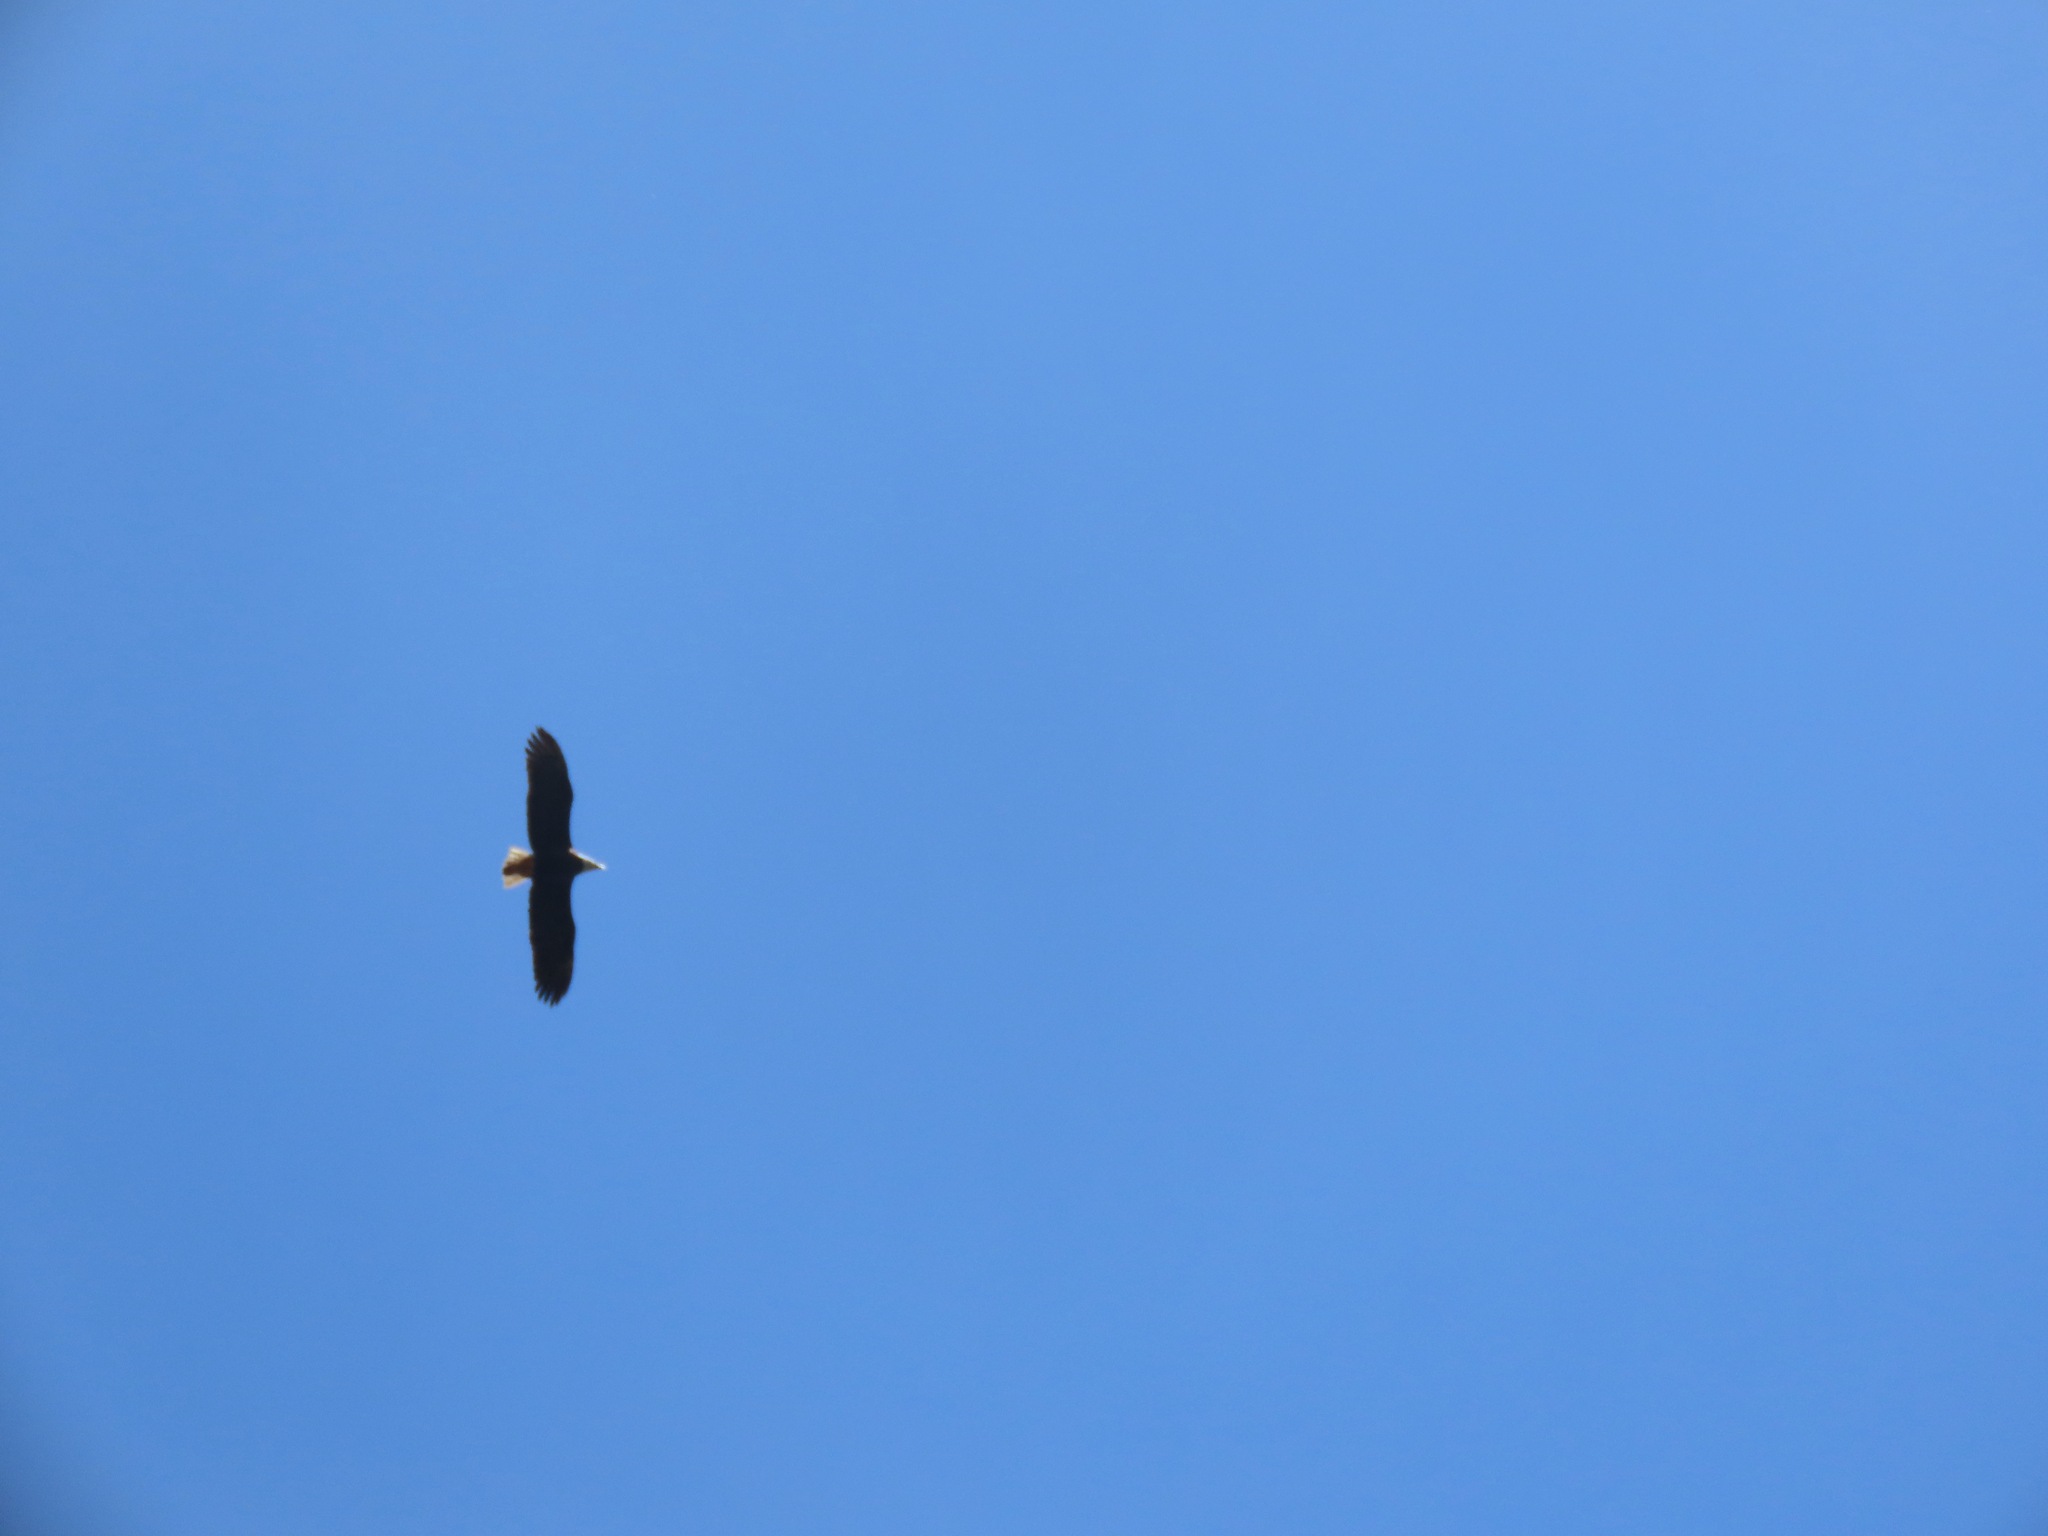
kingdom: Animalia
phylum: Chordata
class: Aves
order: Accipitriformes
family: Accipitridae
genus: Haliaeetus
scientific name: Haliaeetus leucocephalus
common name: Bald eagle
